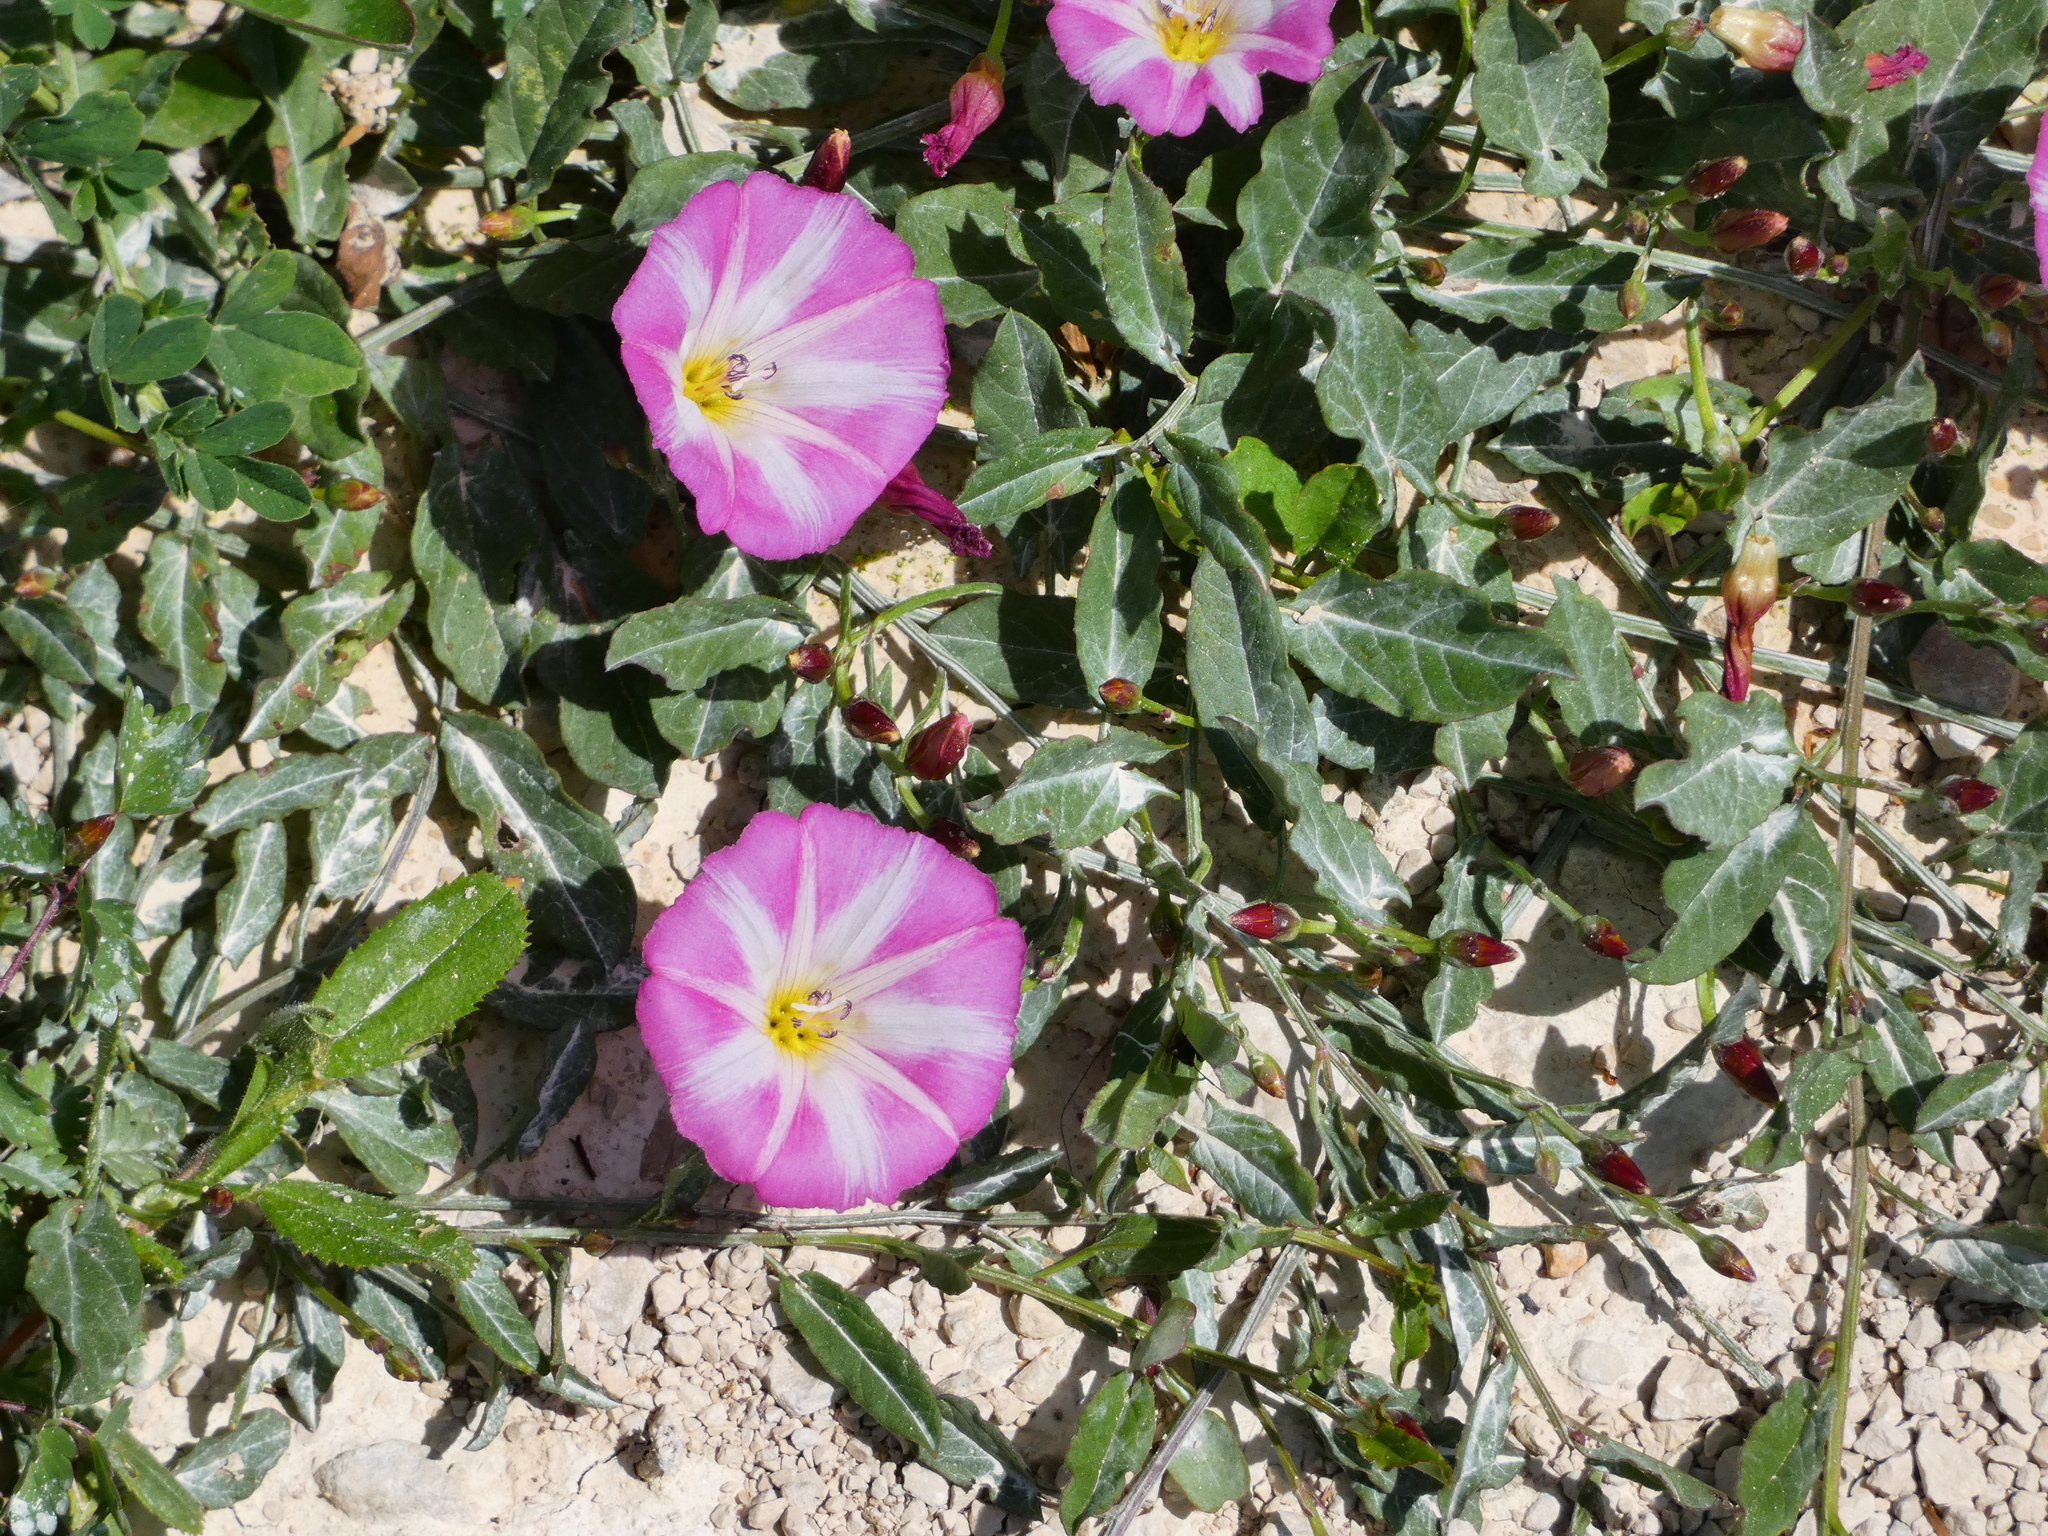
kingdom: Plantae
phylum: Tracheophyta
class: Magnoliopsida
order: Solanales
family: Convolvulaceae
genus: Convolvulus
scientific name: Convolvulus arvensis
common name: Field bindweed
